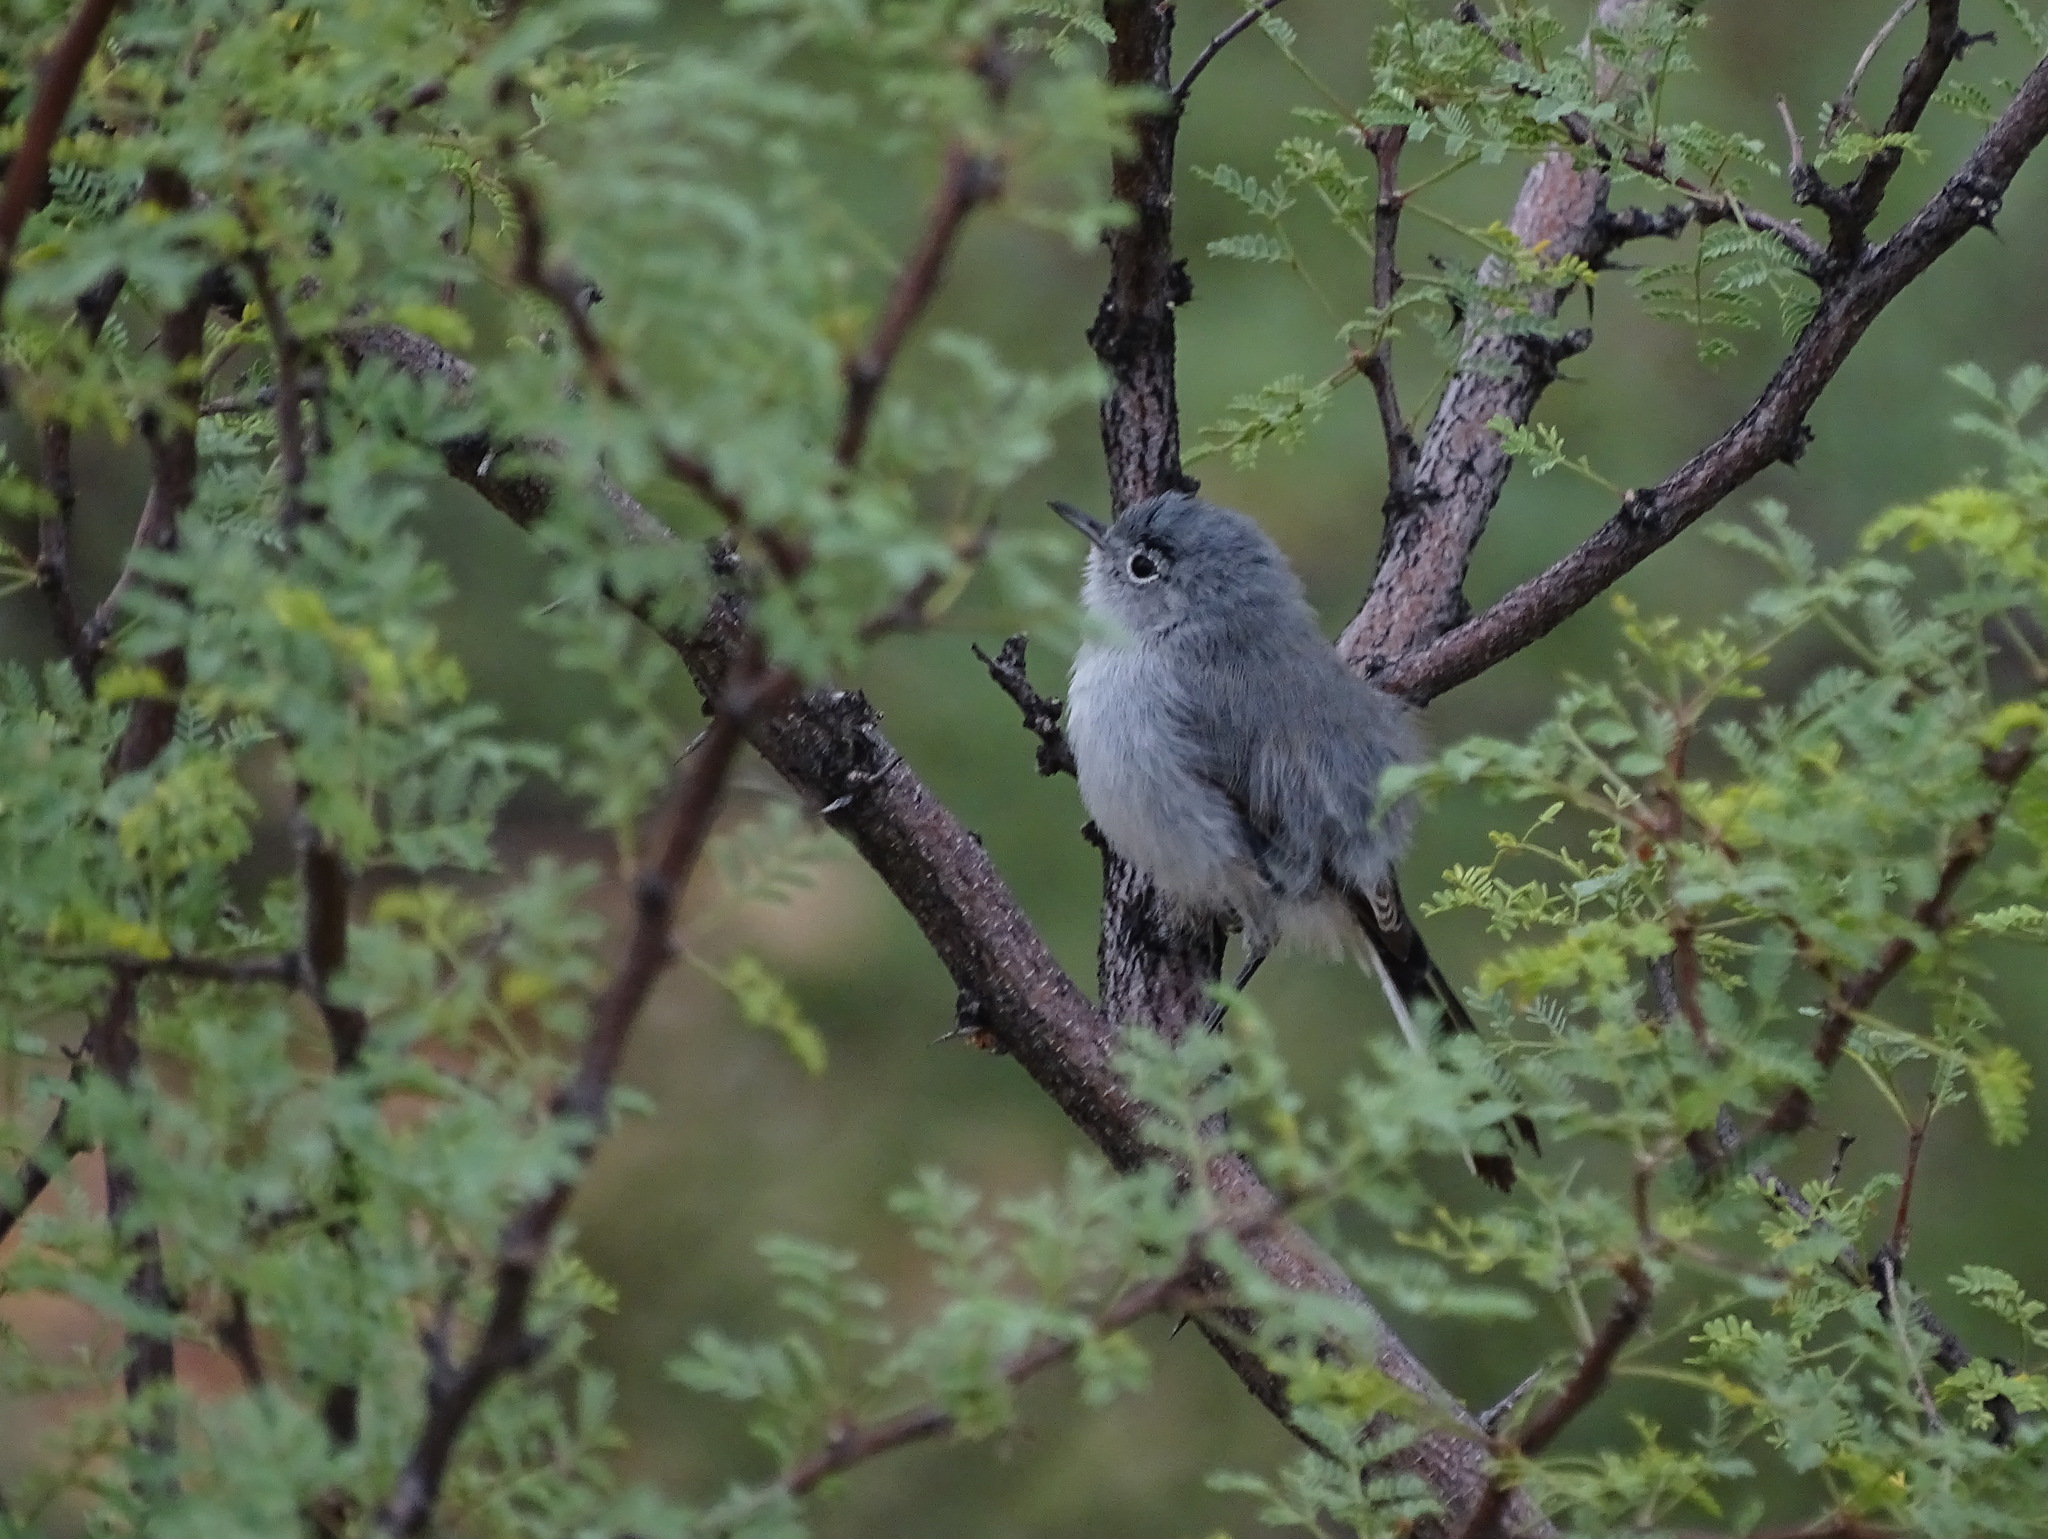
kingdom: Animalia
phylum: Chordata
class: Aves
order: Passeriformes
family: Polioptilidae
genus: Polioptila
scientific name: Polioptila melanura
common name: Black-tailed gnatcatcher
